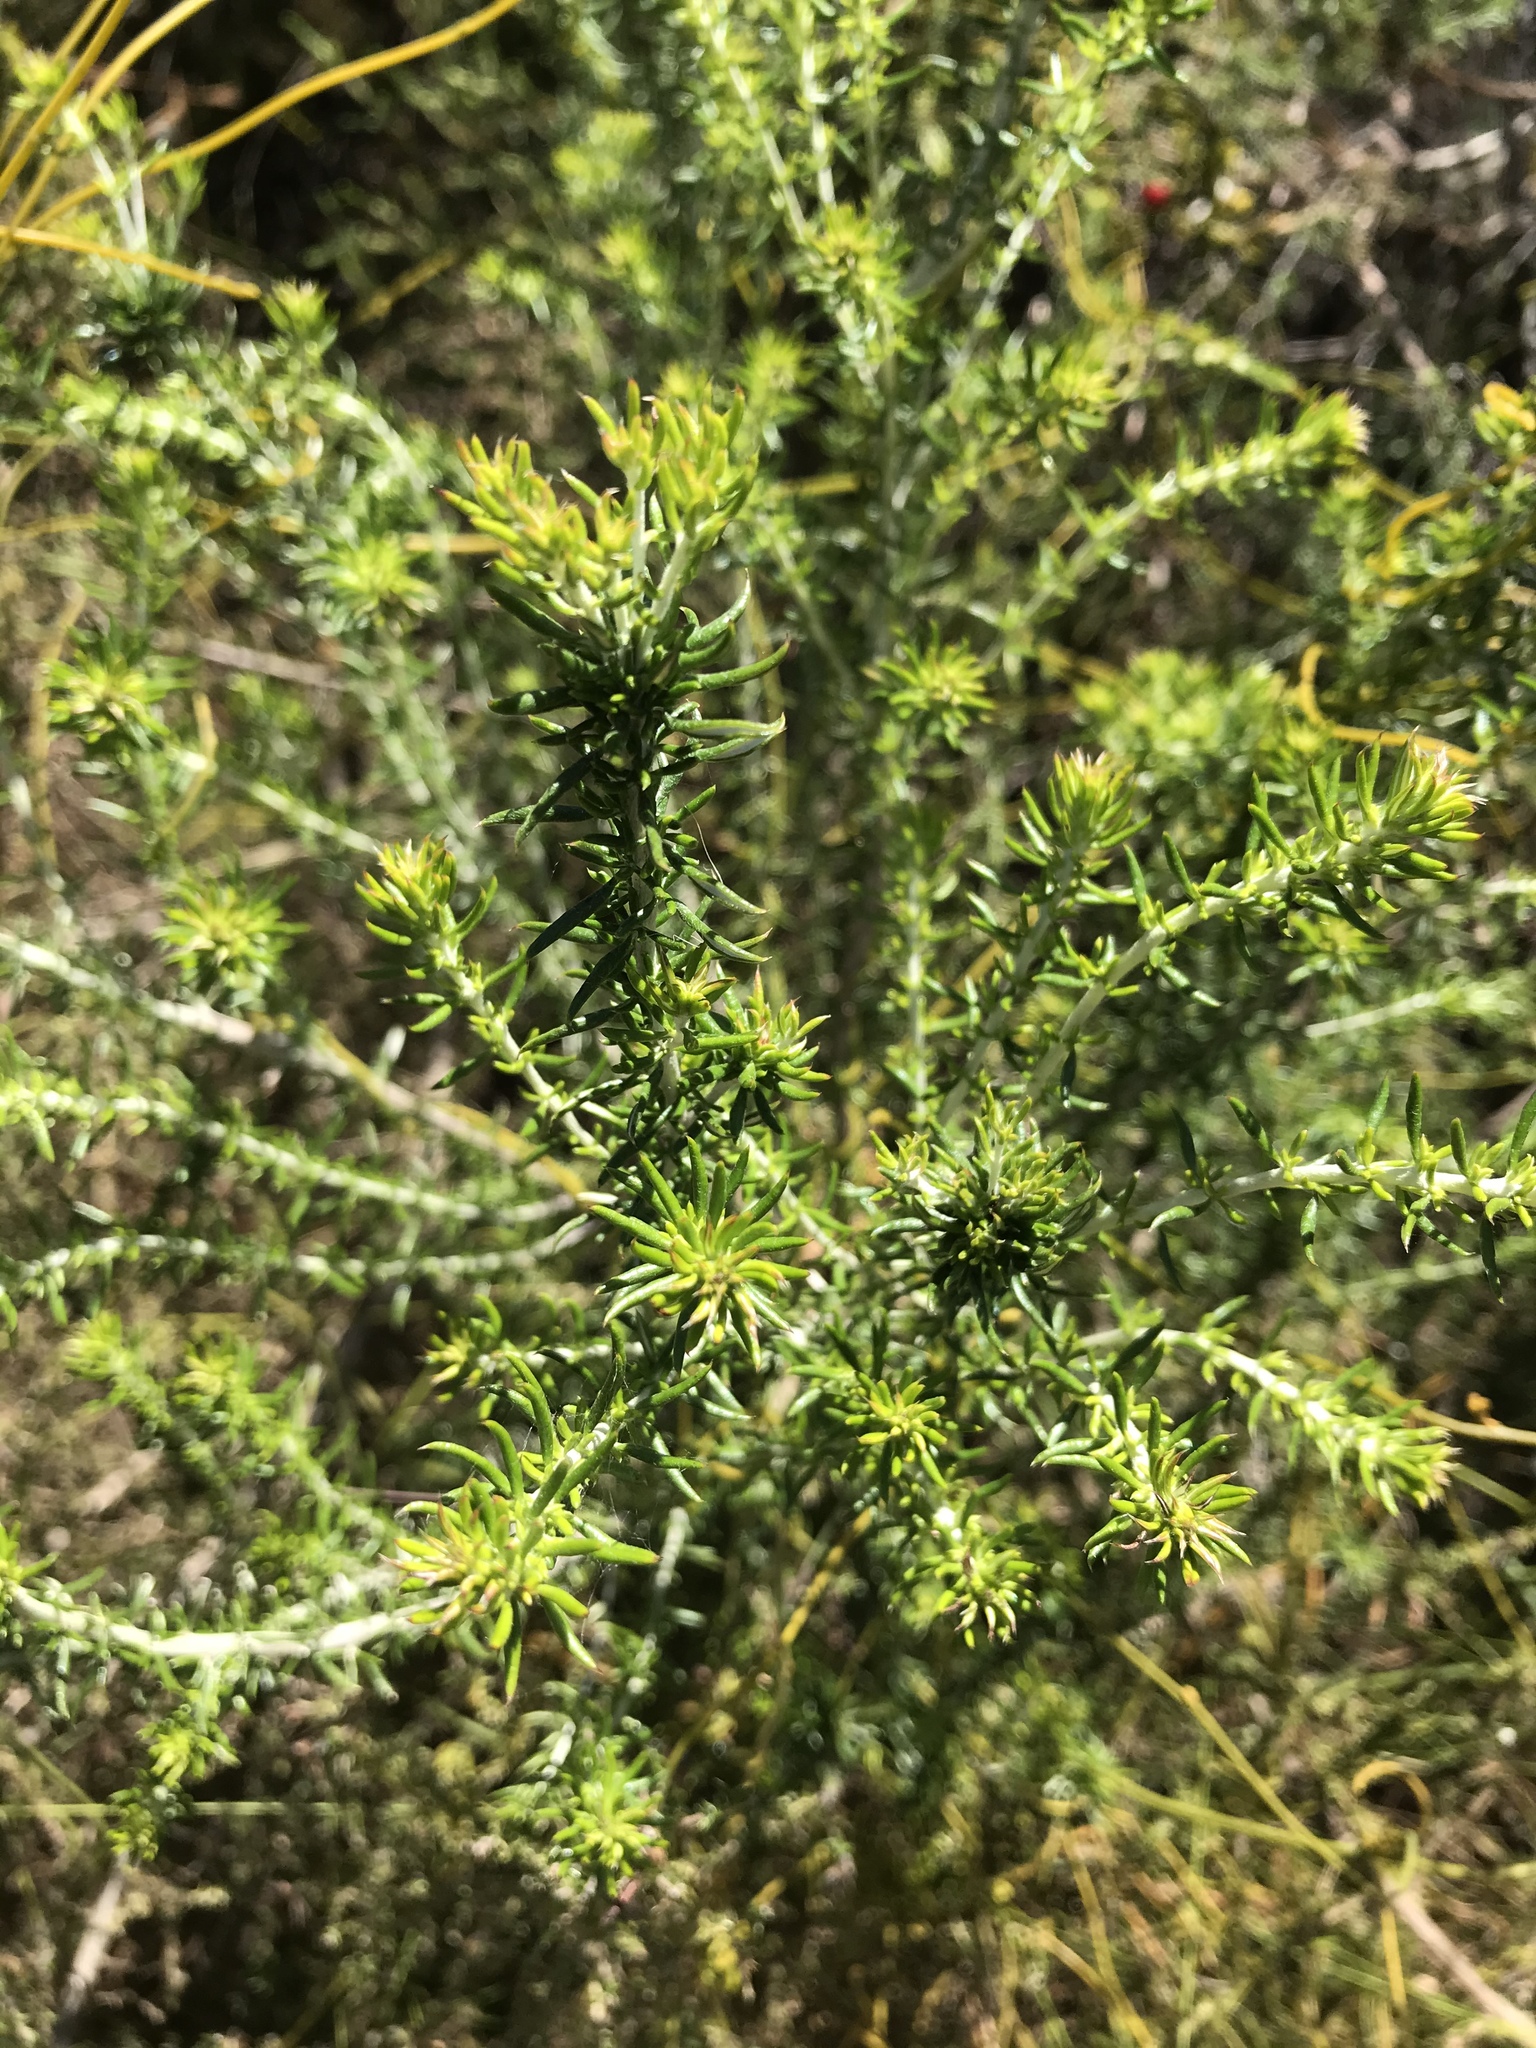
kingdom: Plantae
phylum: Tracheophyta
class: Magnoliopsida
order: Asterales
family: Asteraceae
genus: Metalasia
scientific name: Metalasia densa
